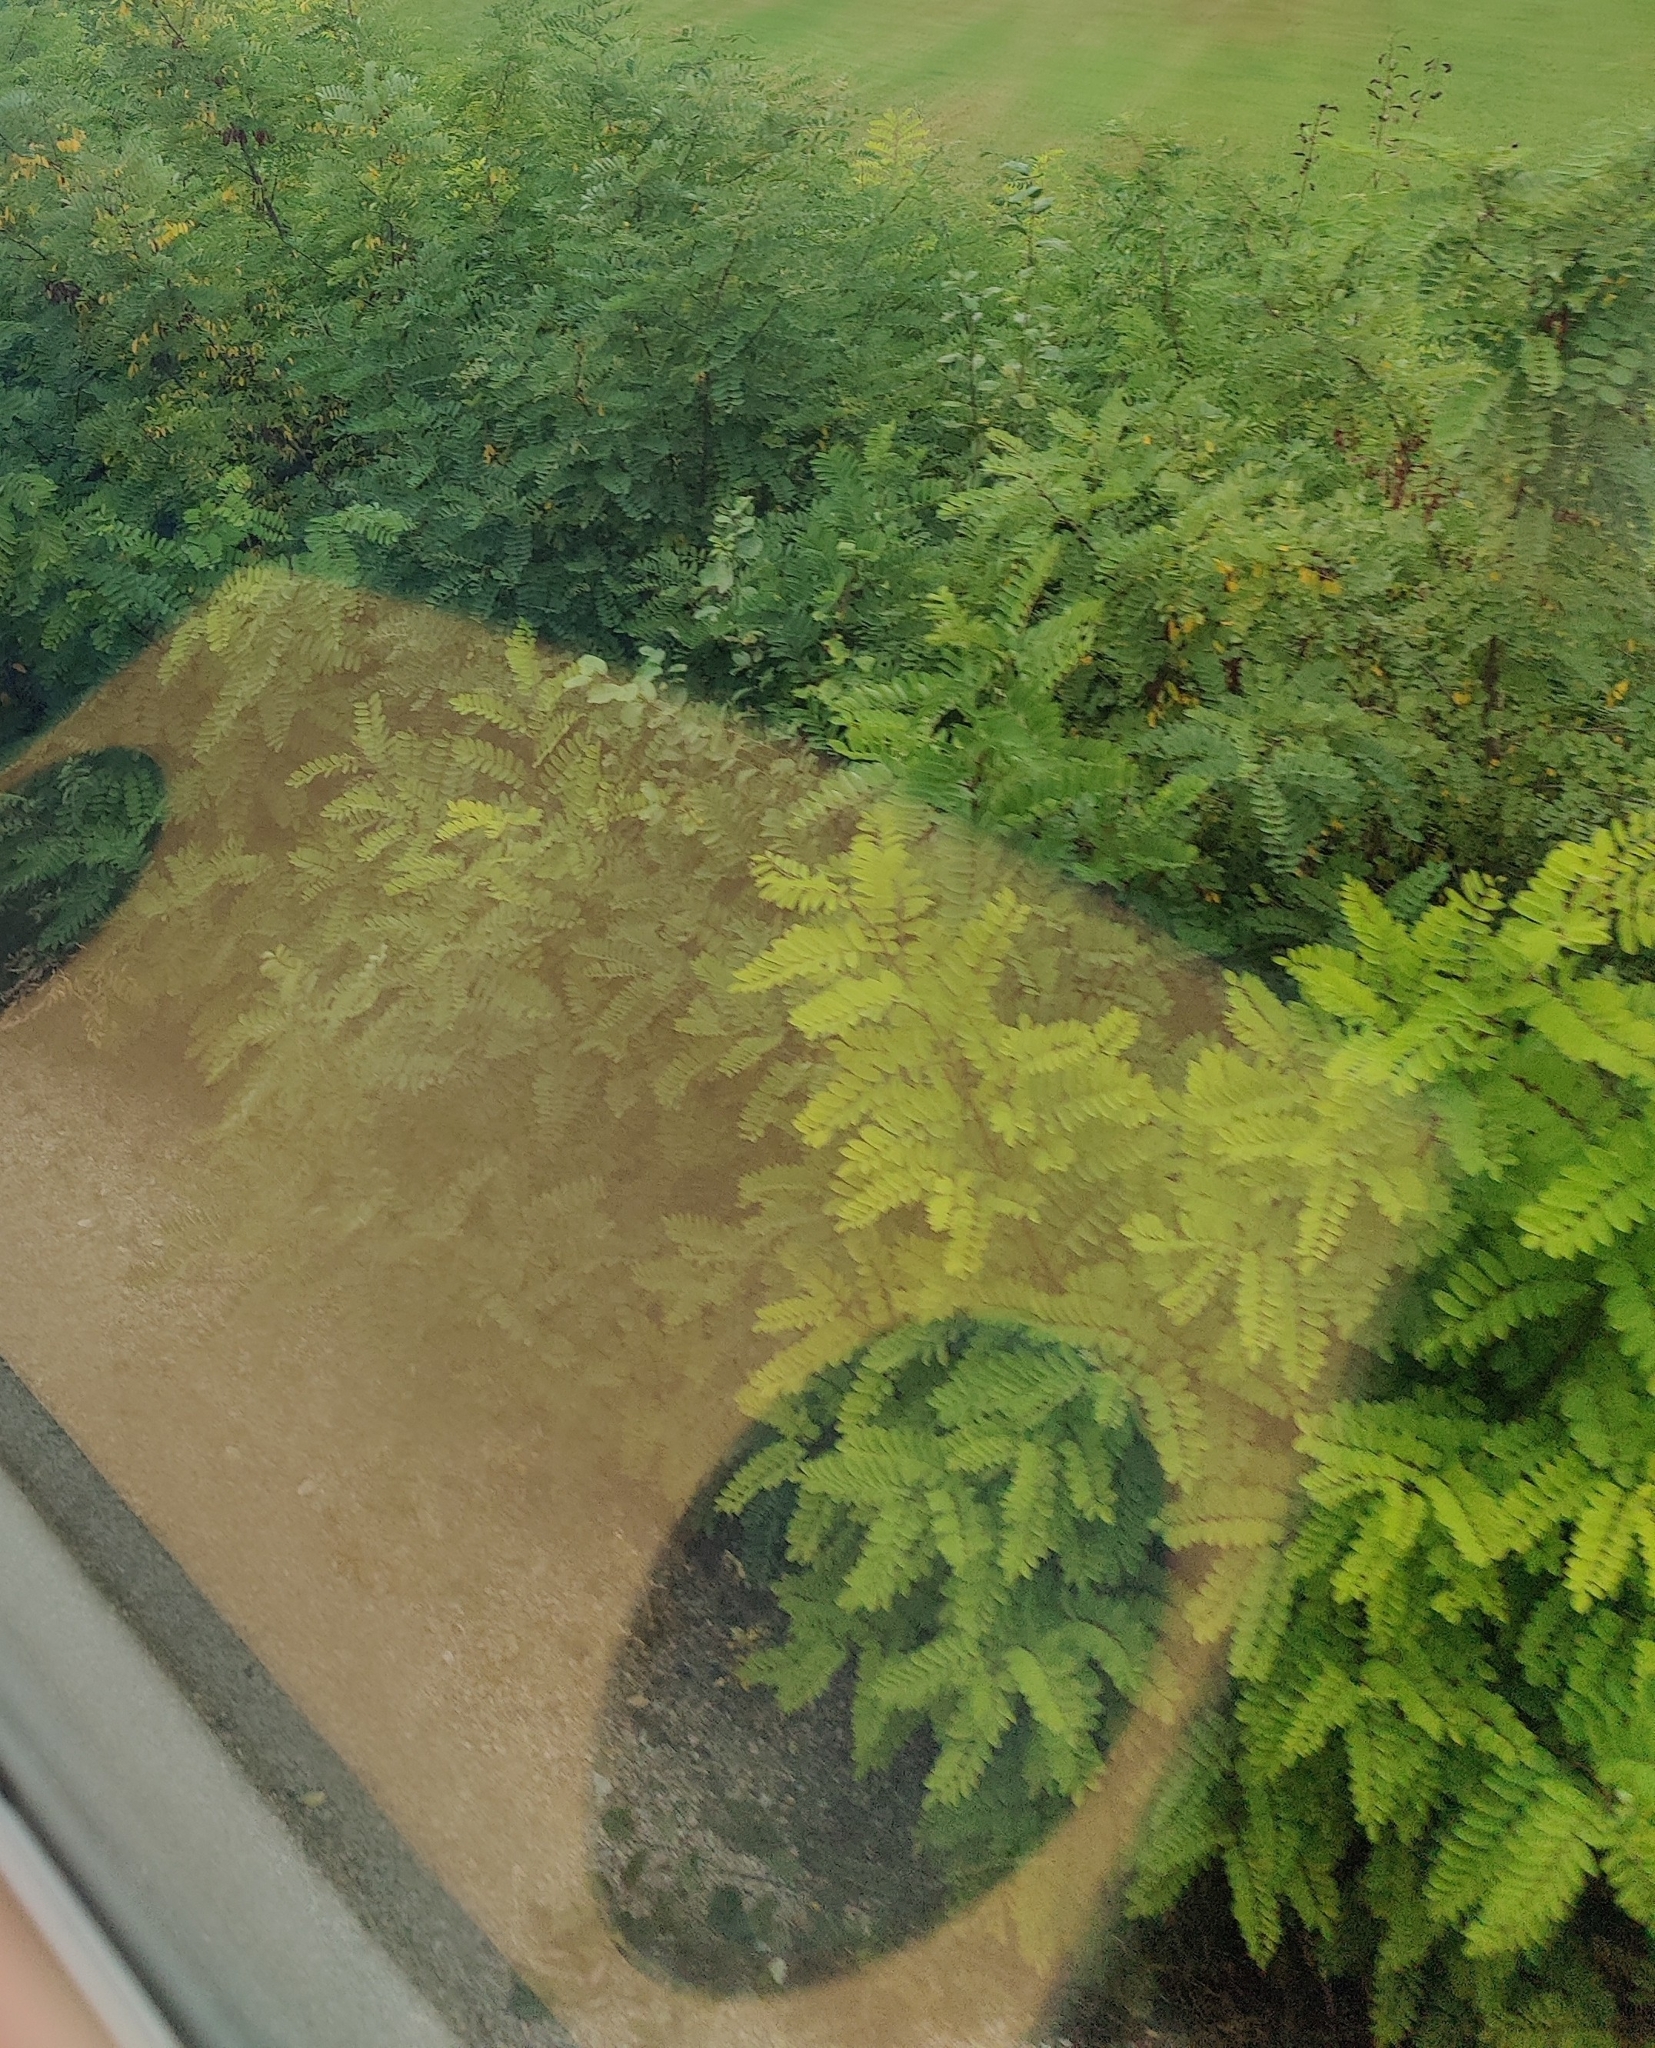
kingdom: Plantae
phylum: Tracheophyta
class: Magnoliopsida
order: Fabales
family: Fabaceae
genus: Robinia
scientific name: Robinia pseudoacacia
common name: Black locust
